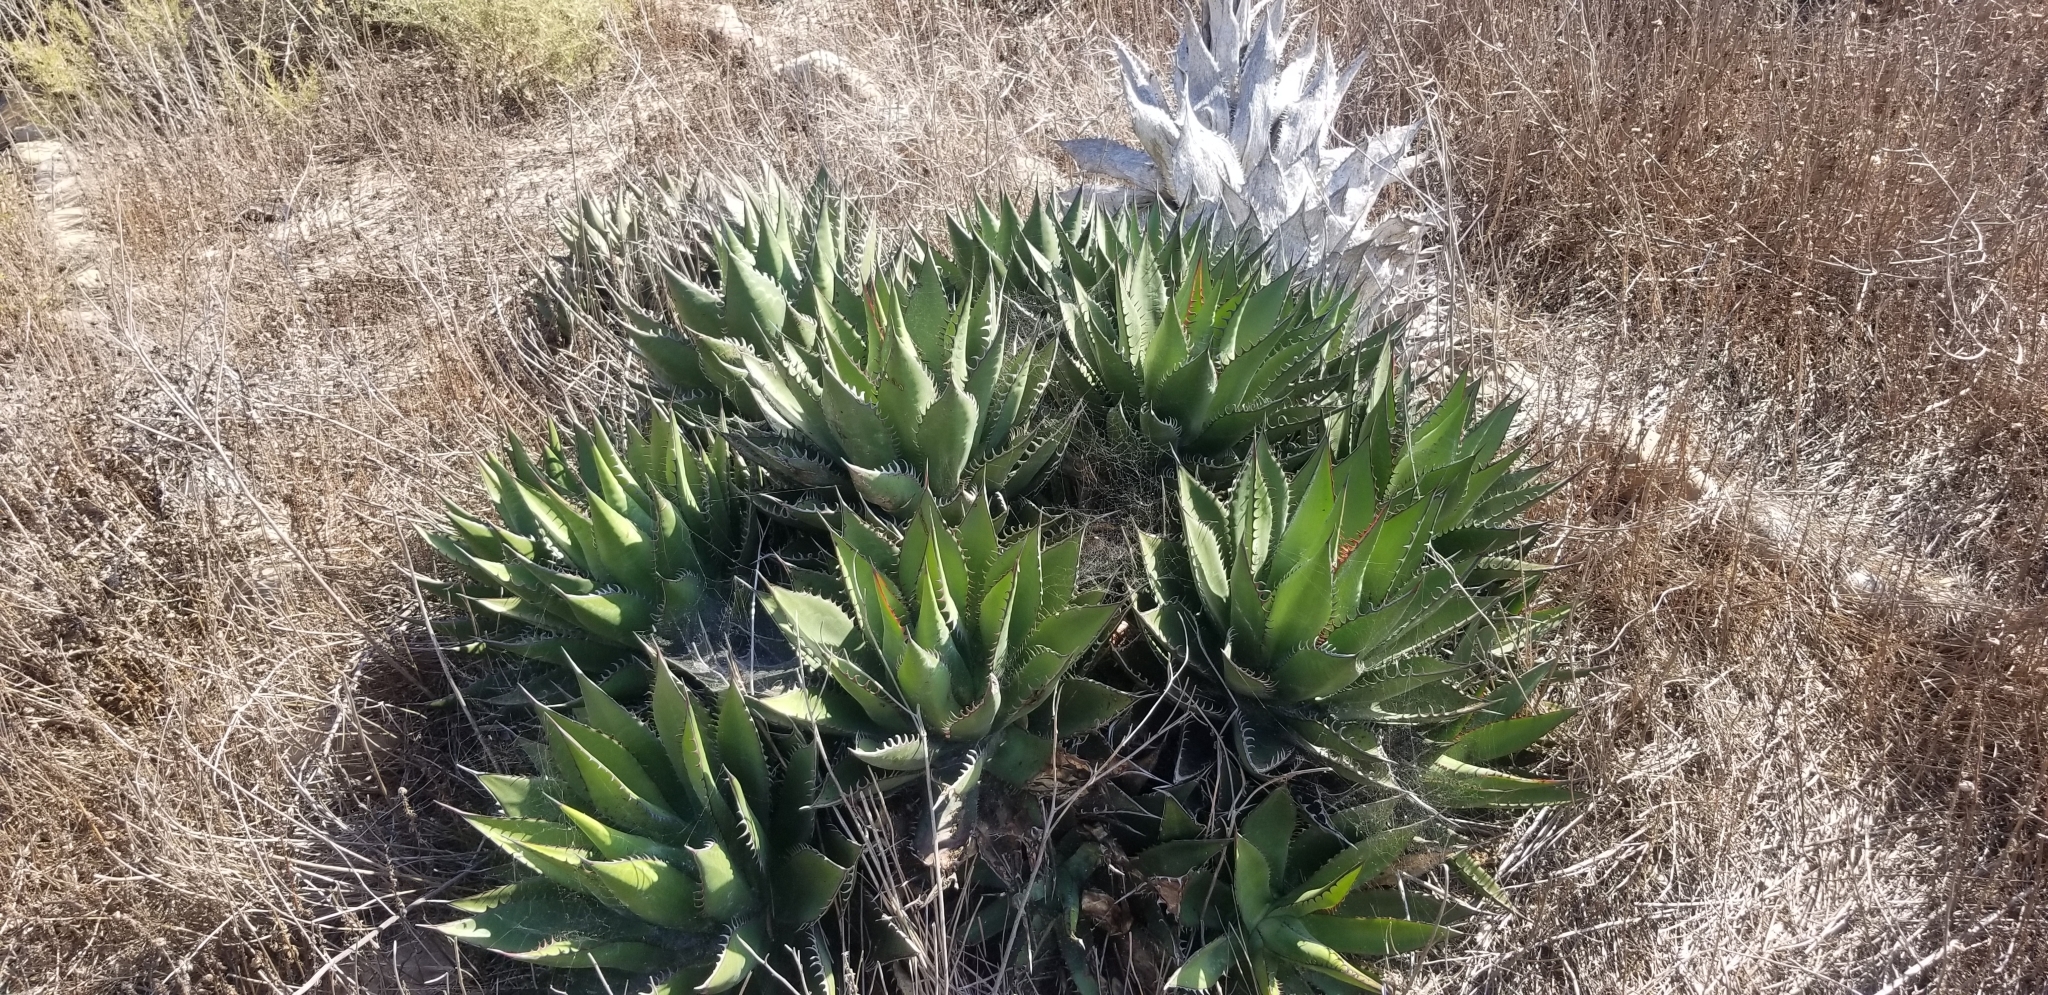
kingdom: Plantae
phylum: Tracheophyta
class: Liliopsida
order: Asparagales
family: Asparagaceae
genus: Agave
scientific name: Agave shawii
